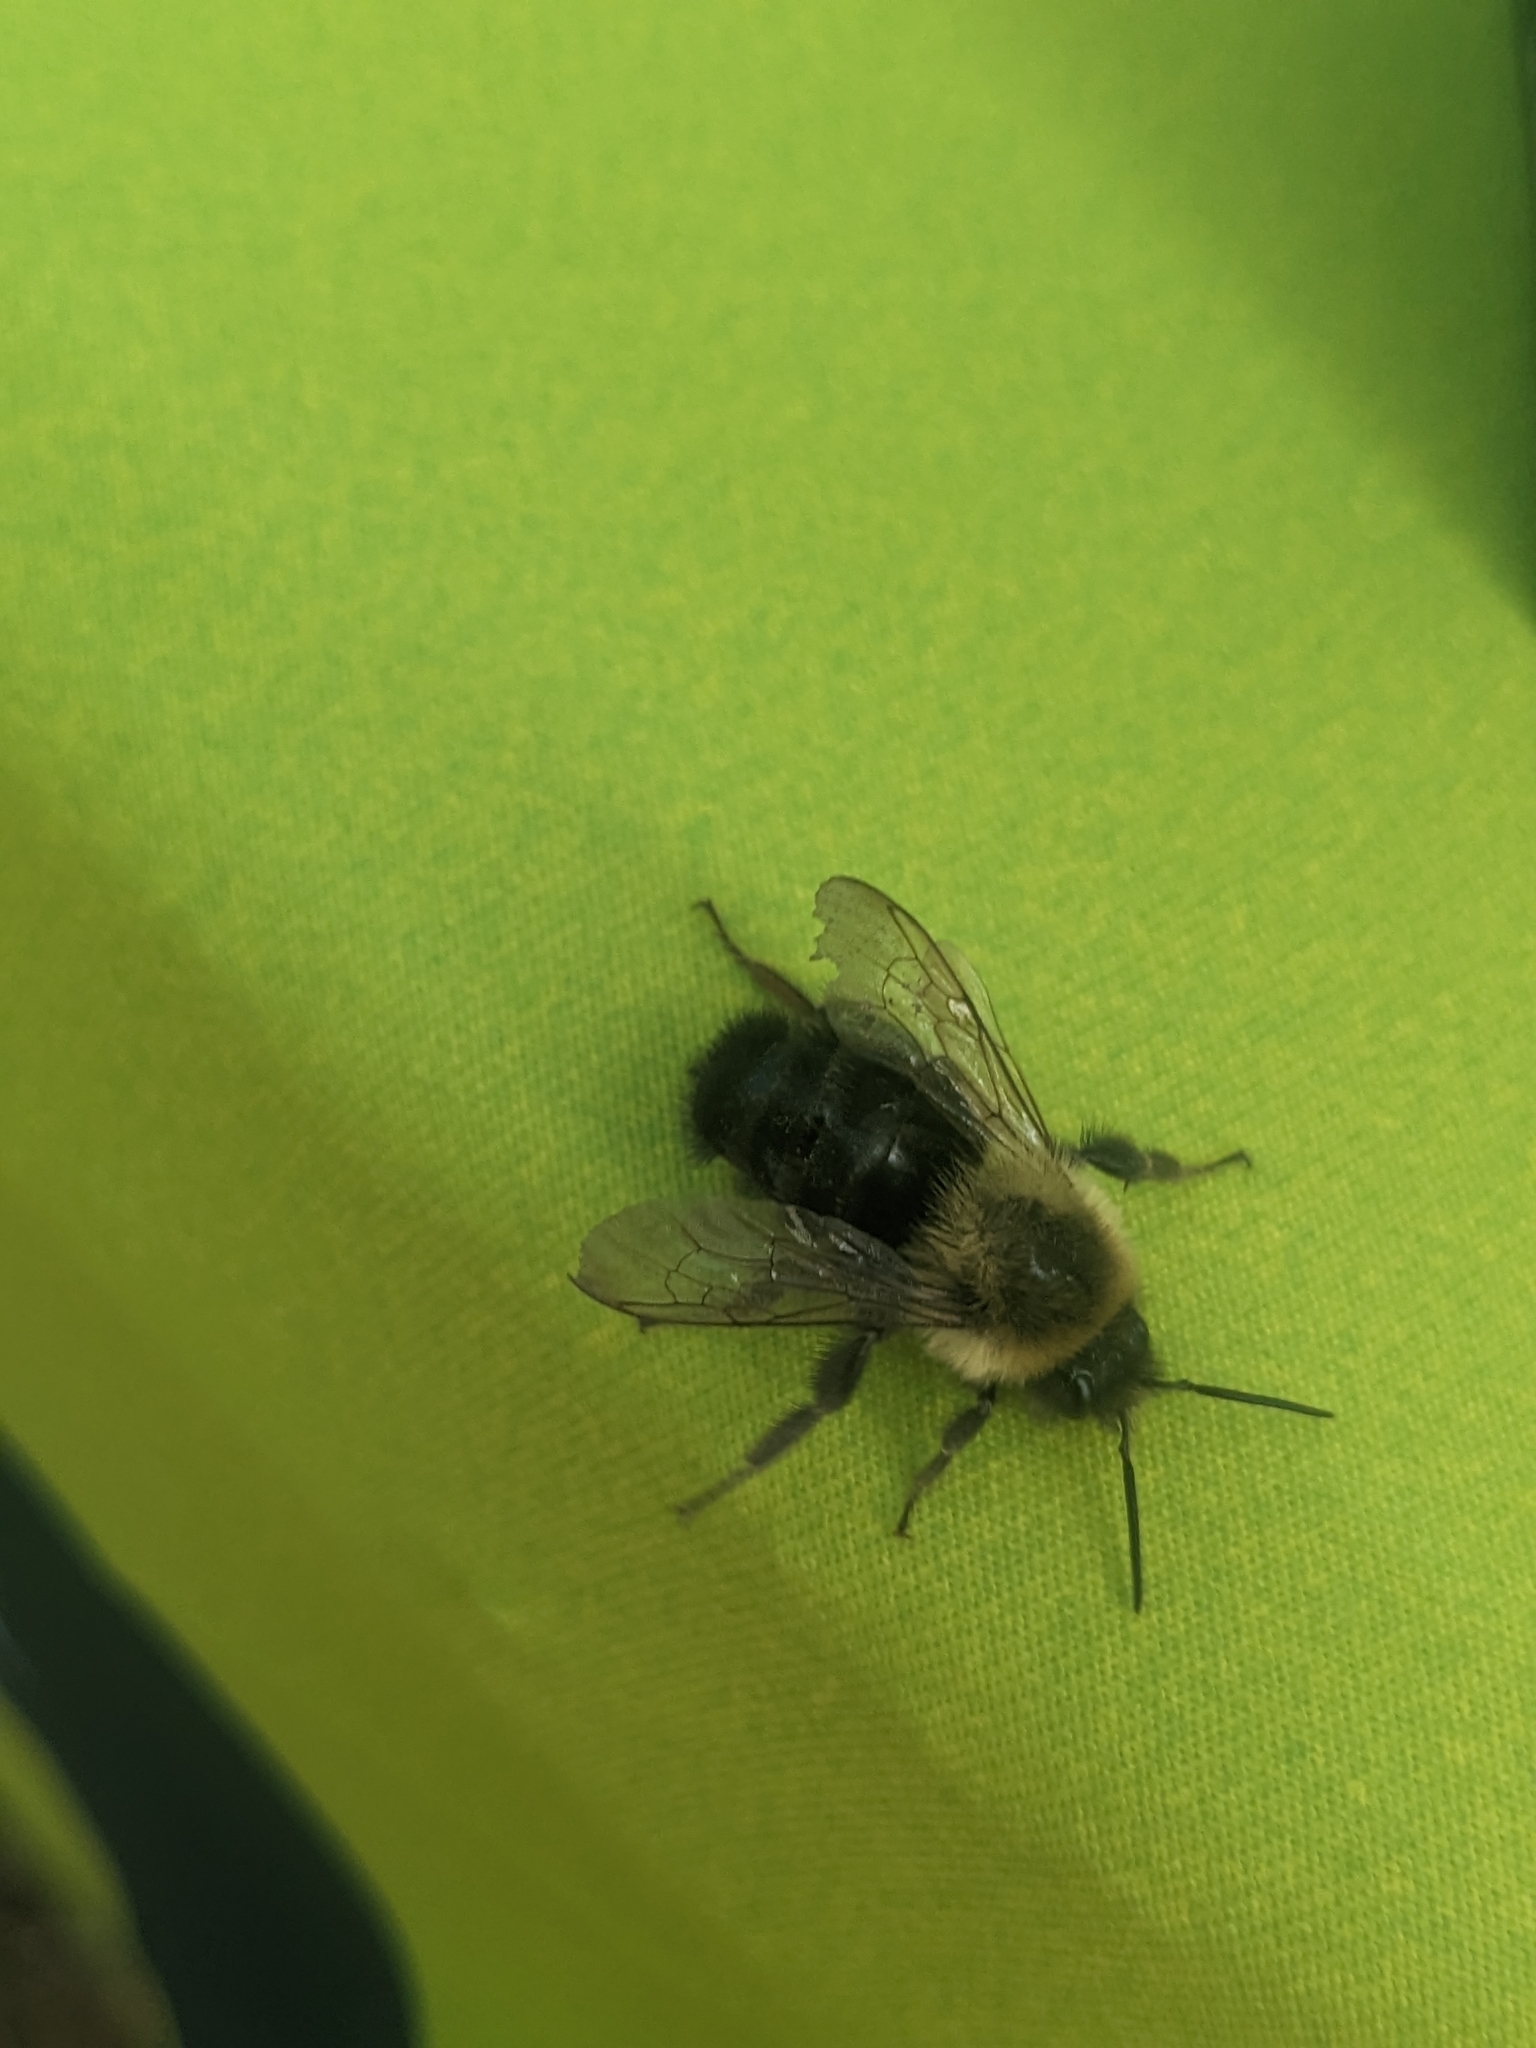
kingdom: Animalia
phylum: Arthropoda
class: Insecta
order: Hymenoptera
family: Apidae
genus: Bombus
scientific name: Bombus impatiens
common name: Common eastern bumble bee
